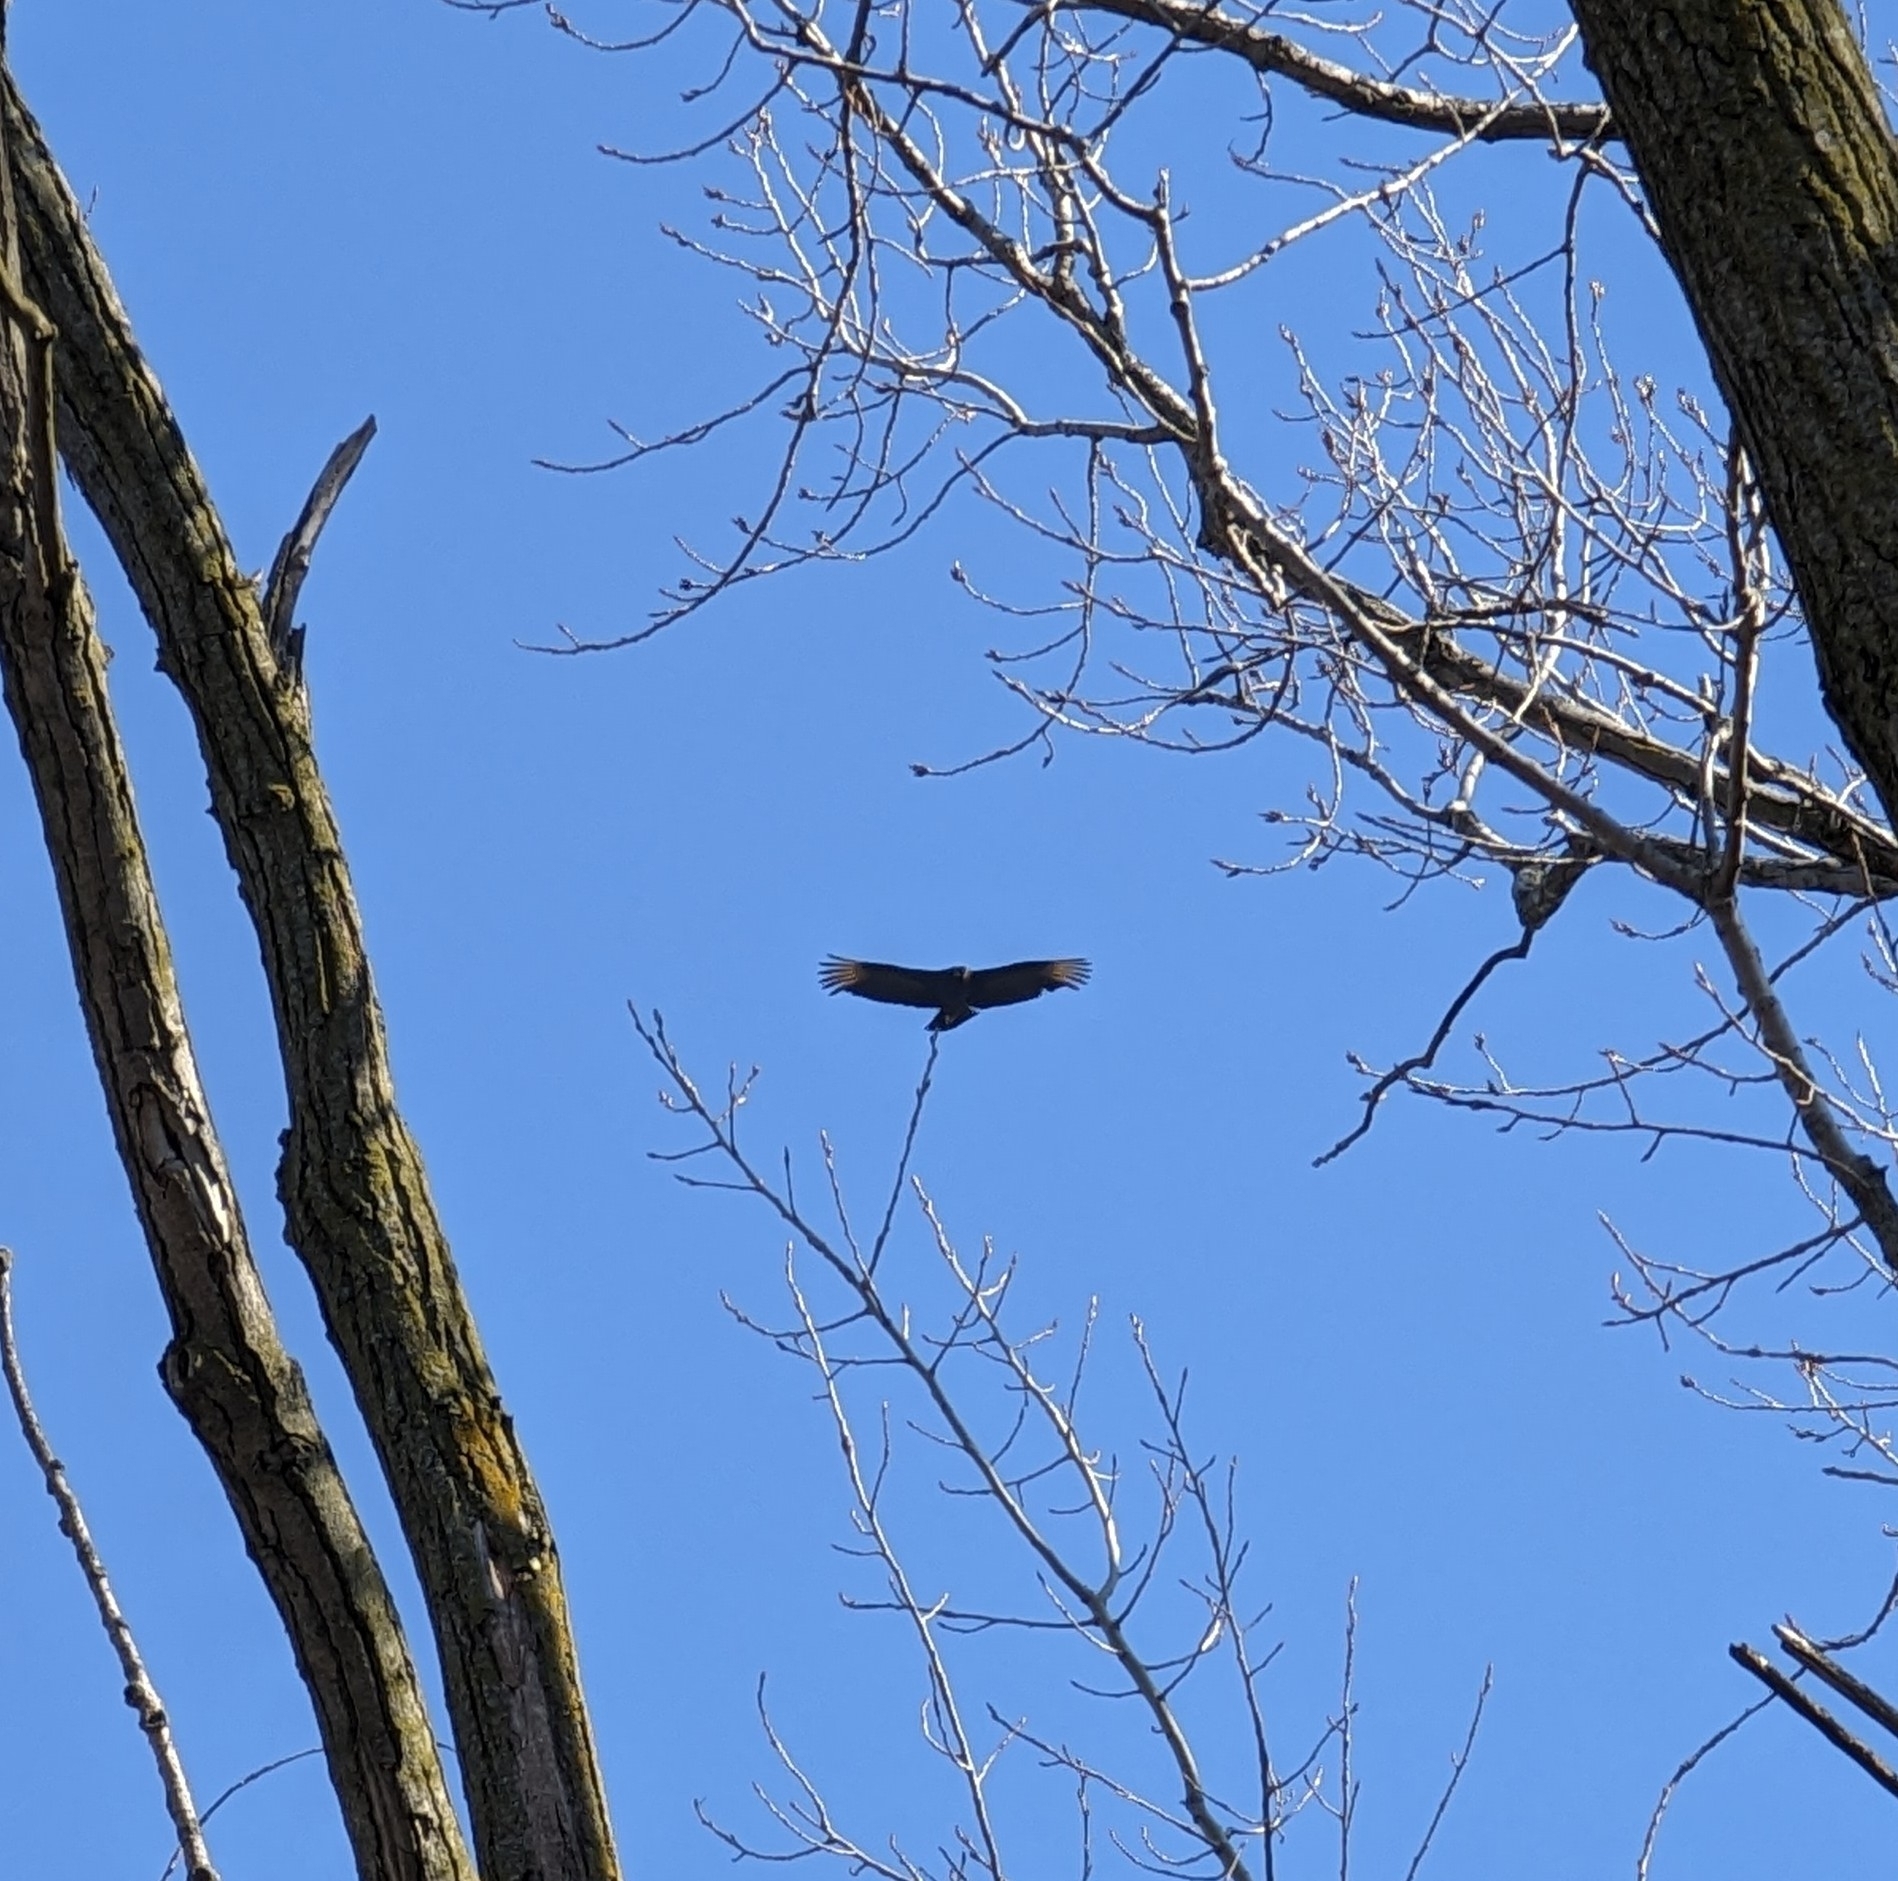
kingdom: Animalia
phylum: Chordata
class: Aves
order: Accipitriformes
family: Cathartidae
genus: Coragyps
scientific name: Coragyps atratus
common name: Black vulture
